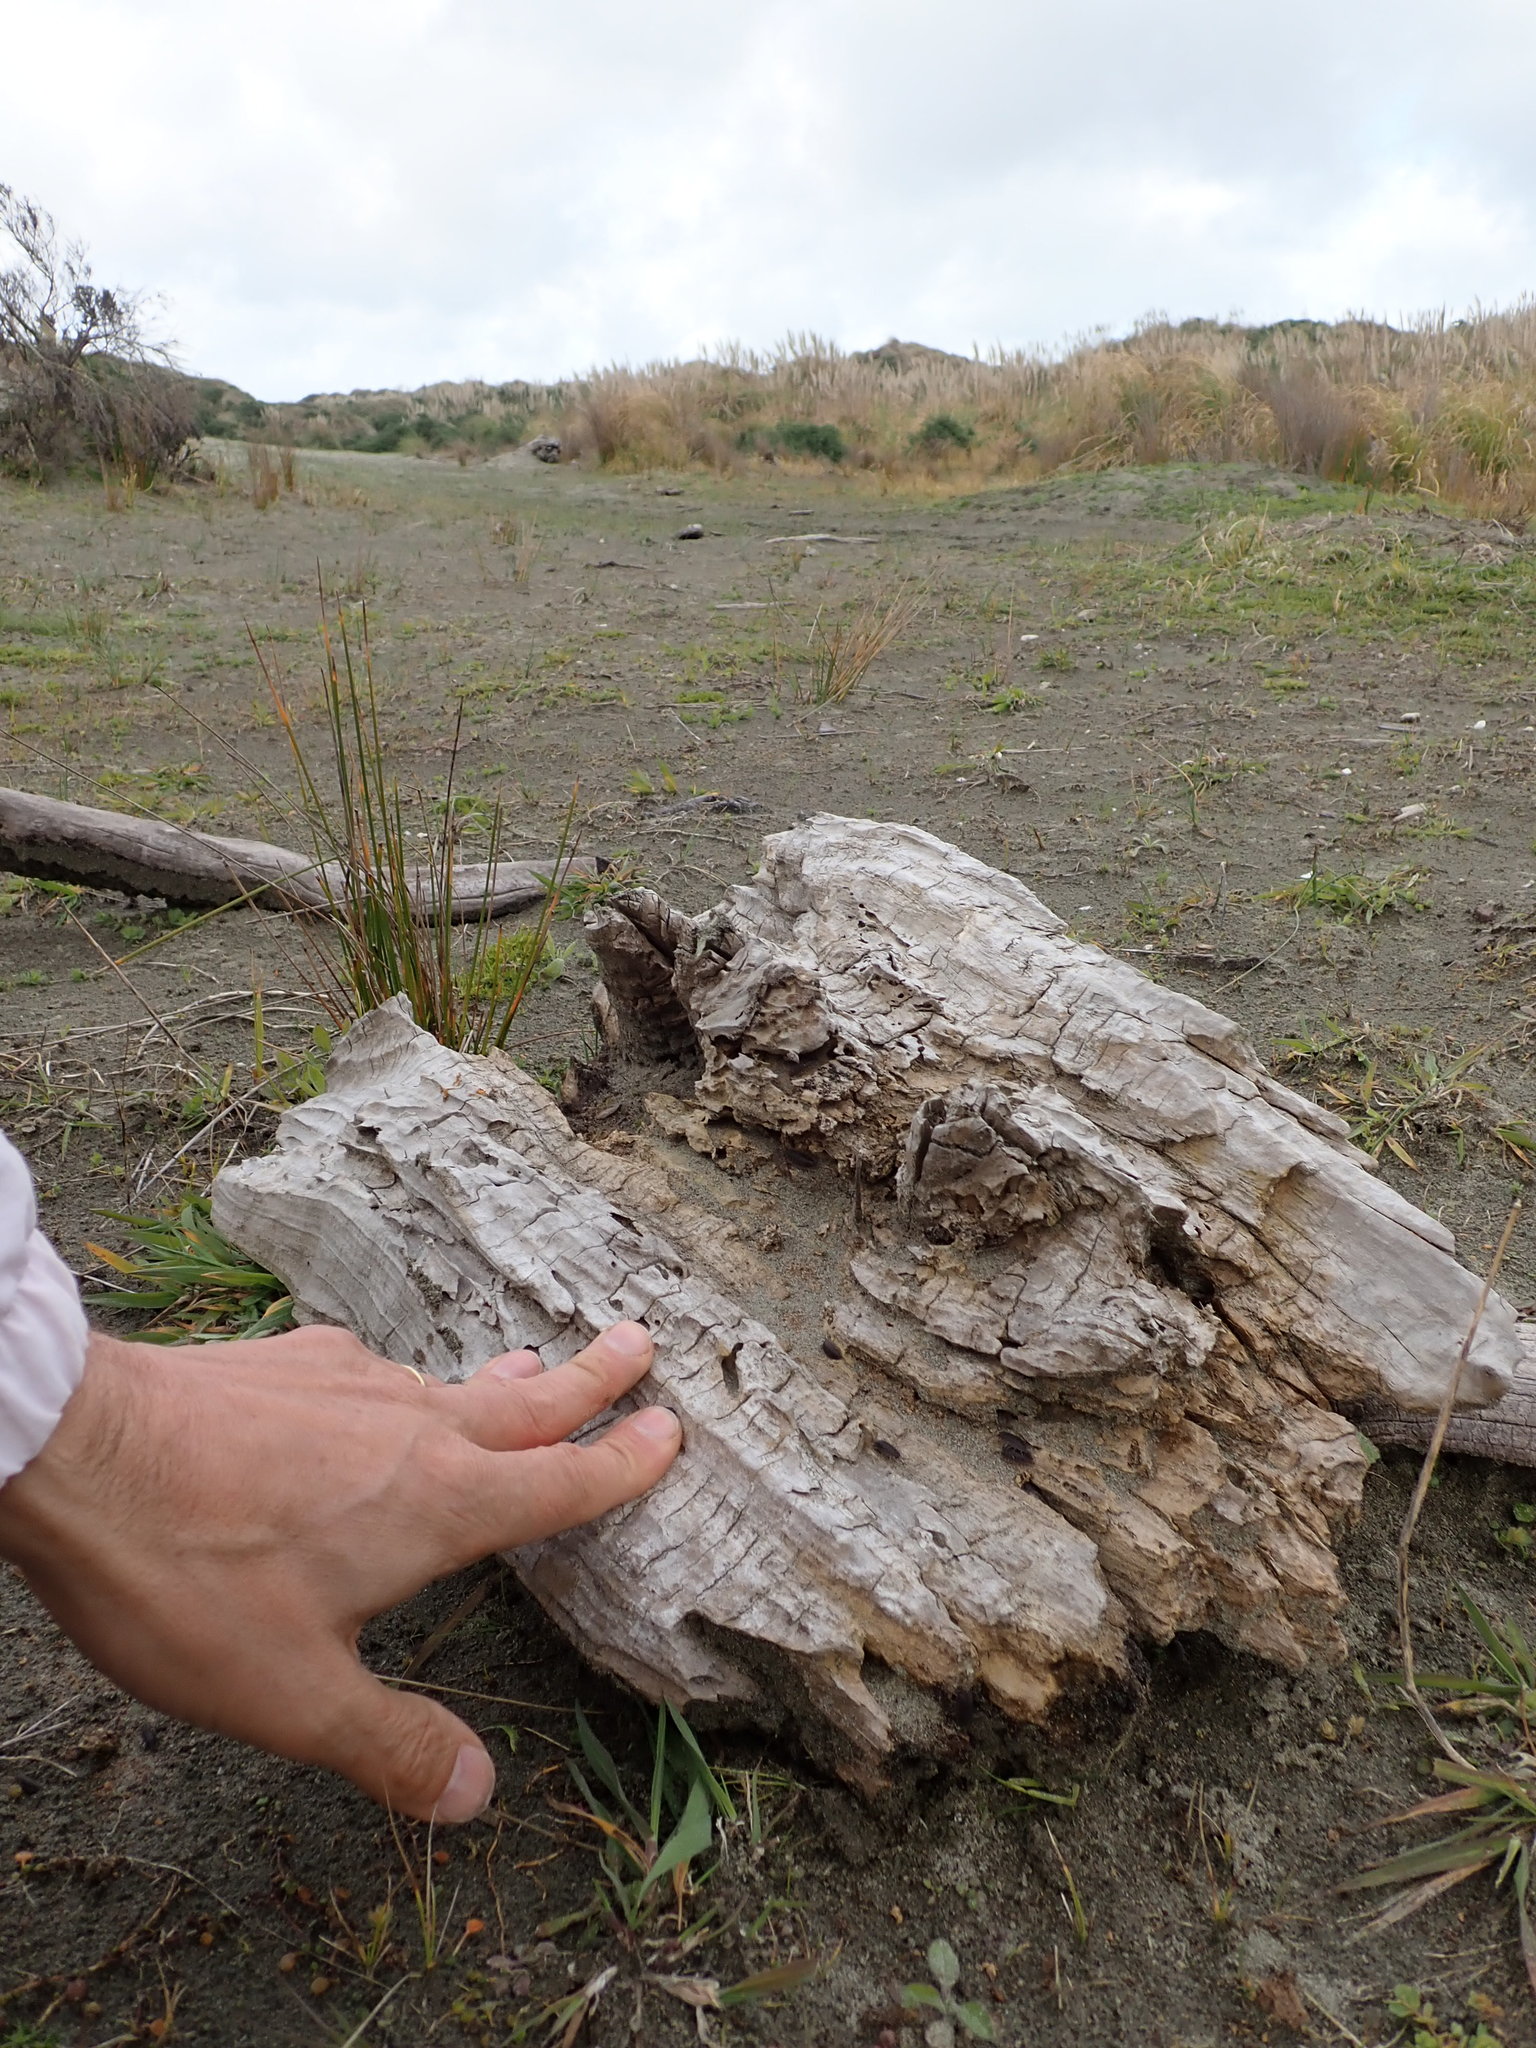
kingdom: Animalia
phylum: Arthropoda
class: Arachnida
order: Araneae
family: Mimetidae
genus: Australomimetus
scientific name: Australomimetus hartleyensis
